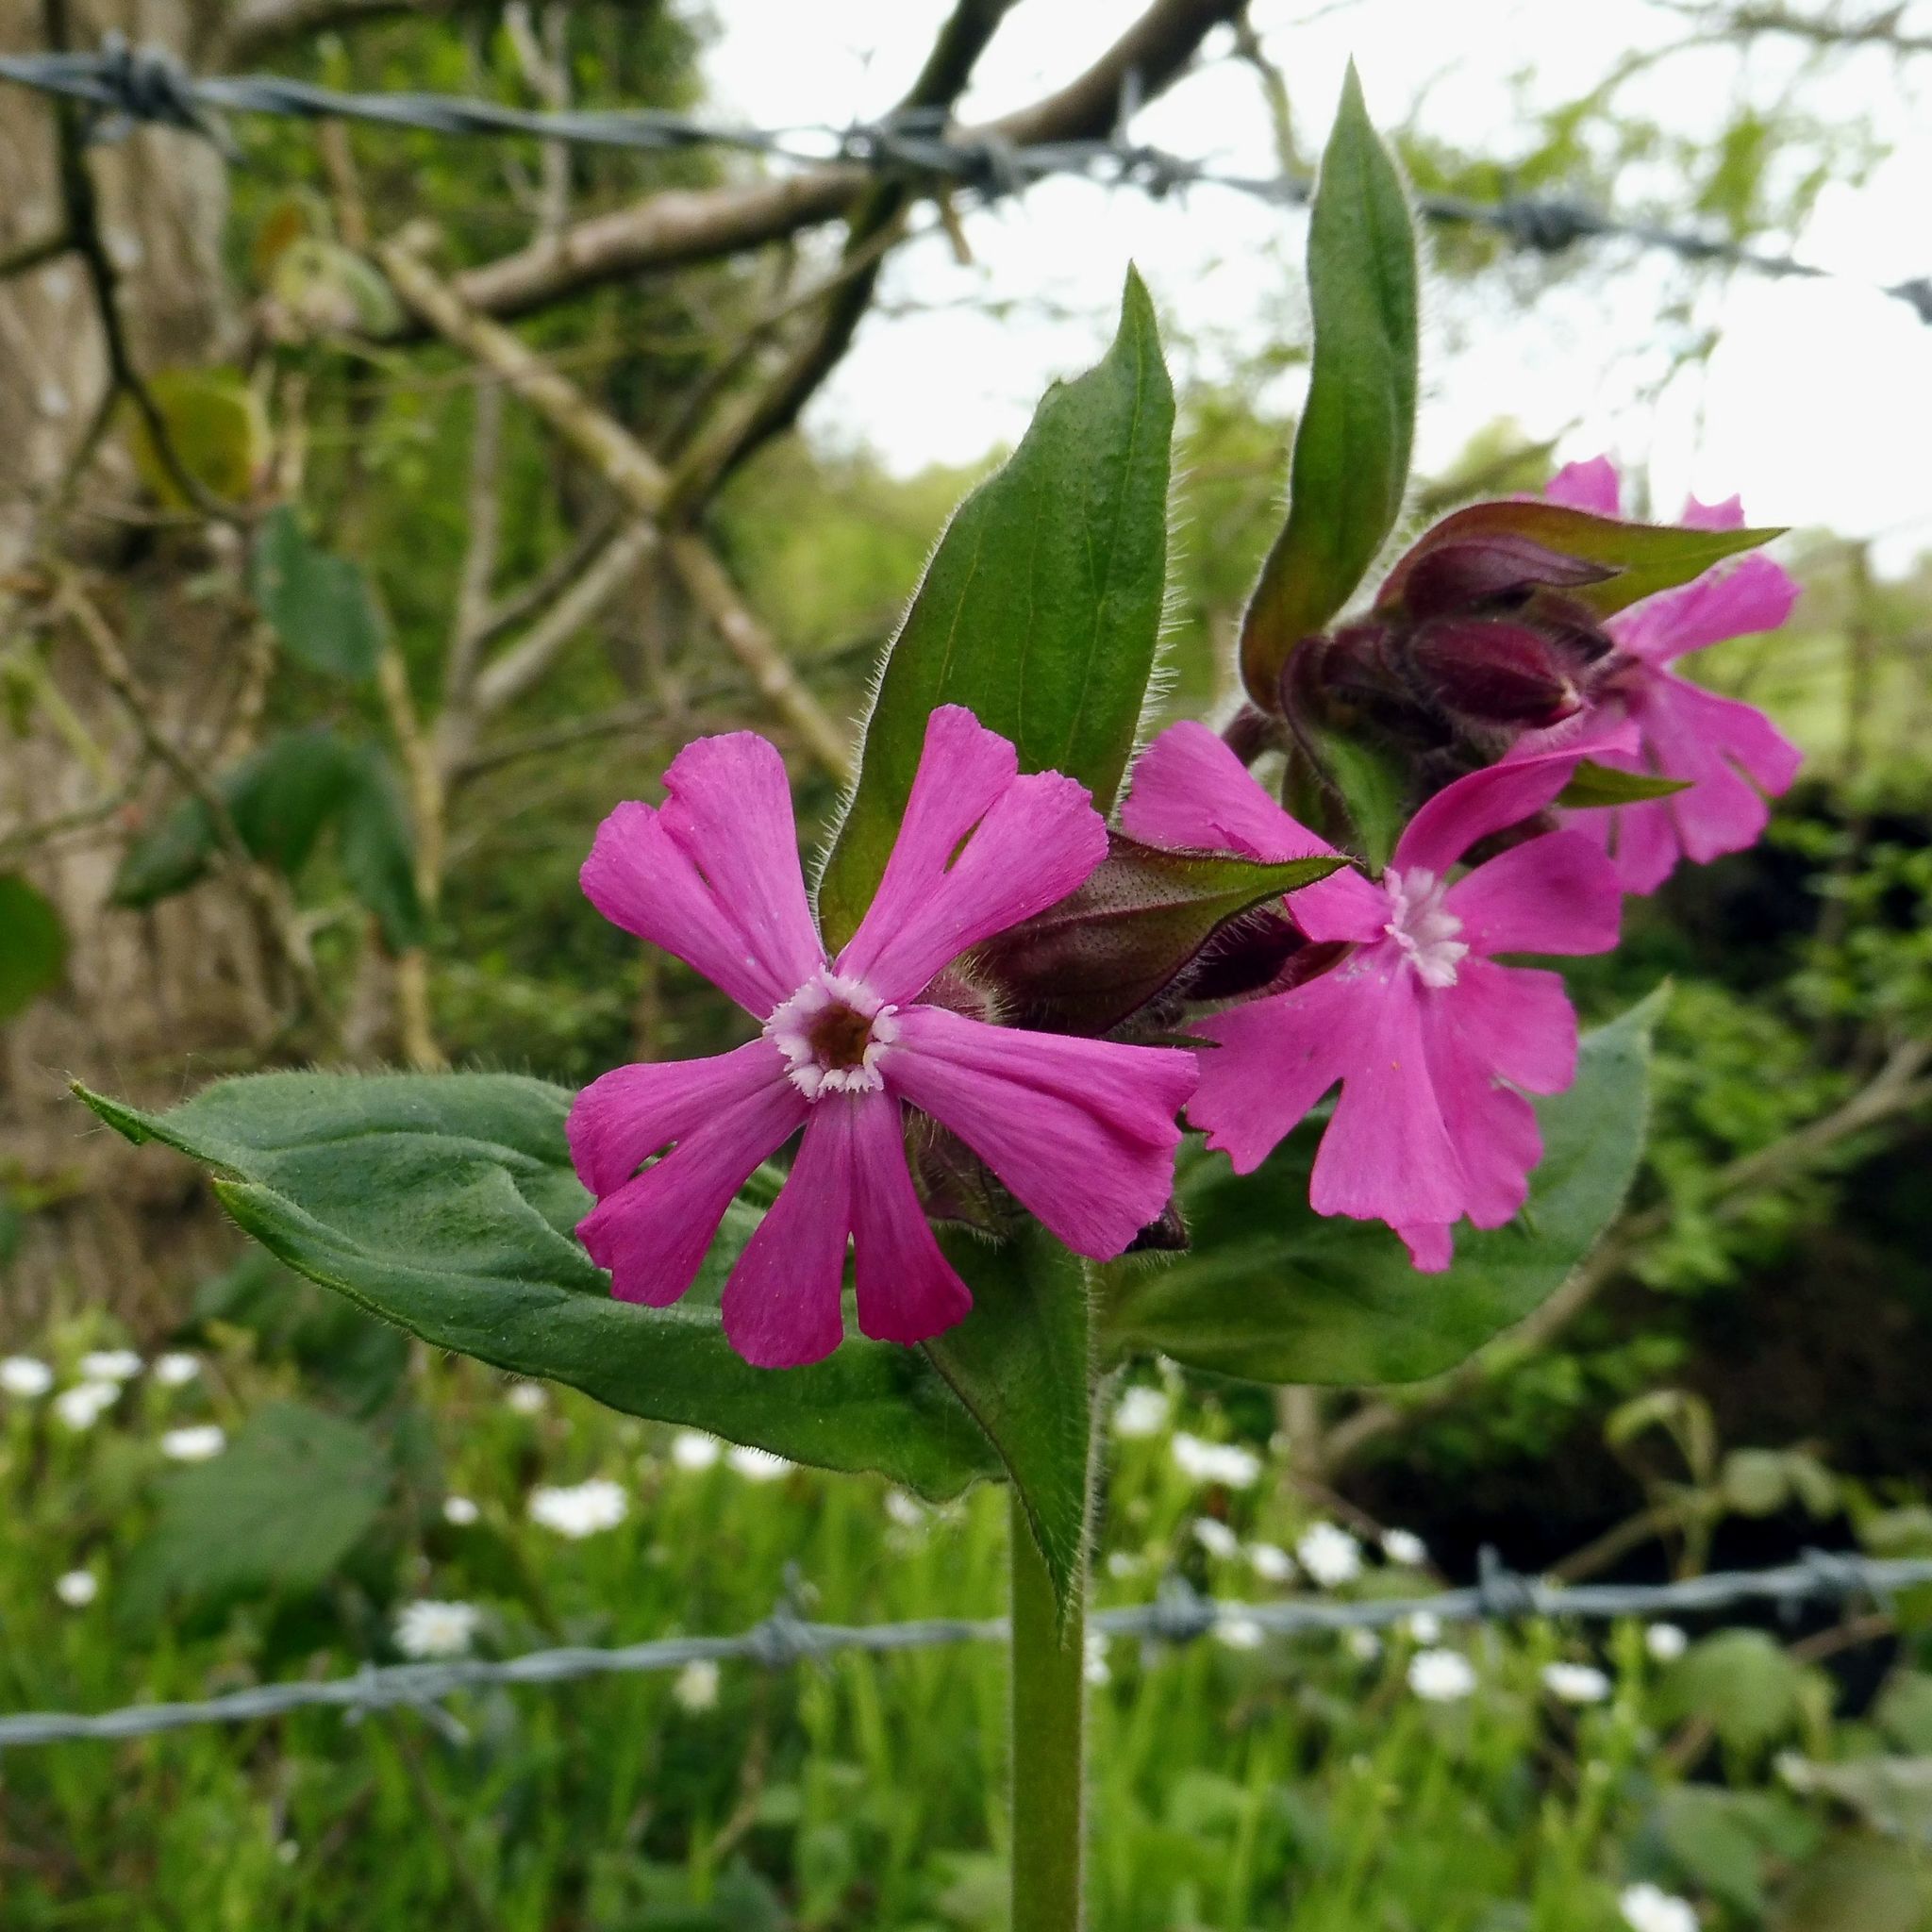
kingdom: Plantae
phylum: Tracheophyta
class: Magnoliopsida
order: Caryophyllales
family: Caryophyllaceae
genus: Silene
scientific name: Silene dioica
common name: Red campion
